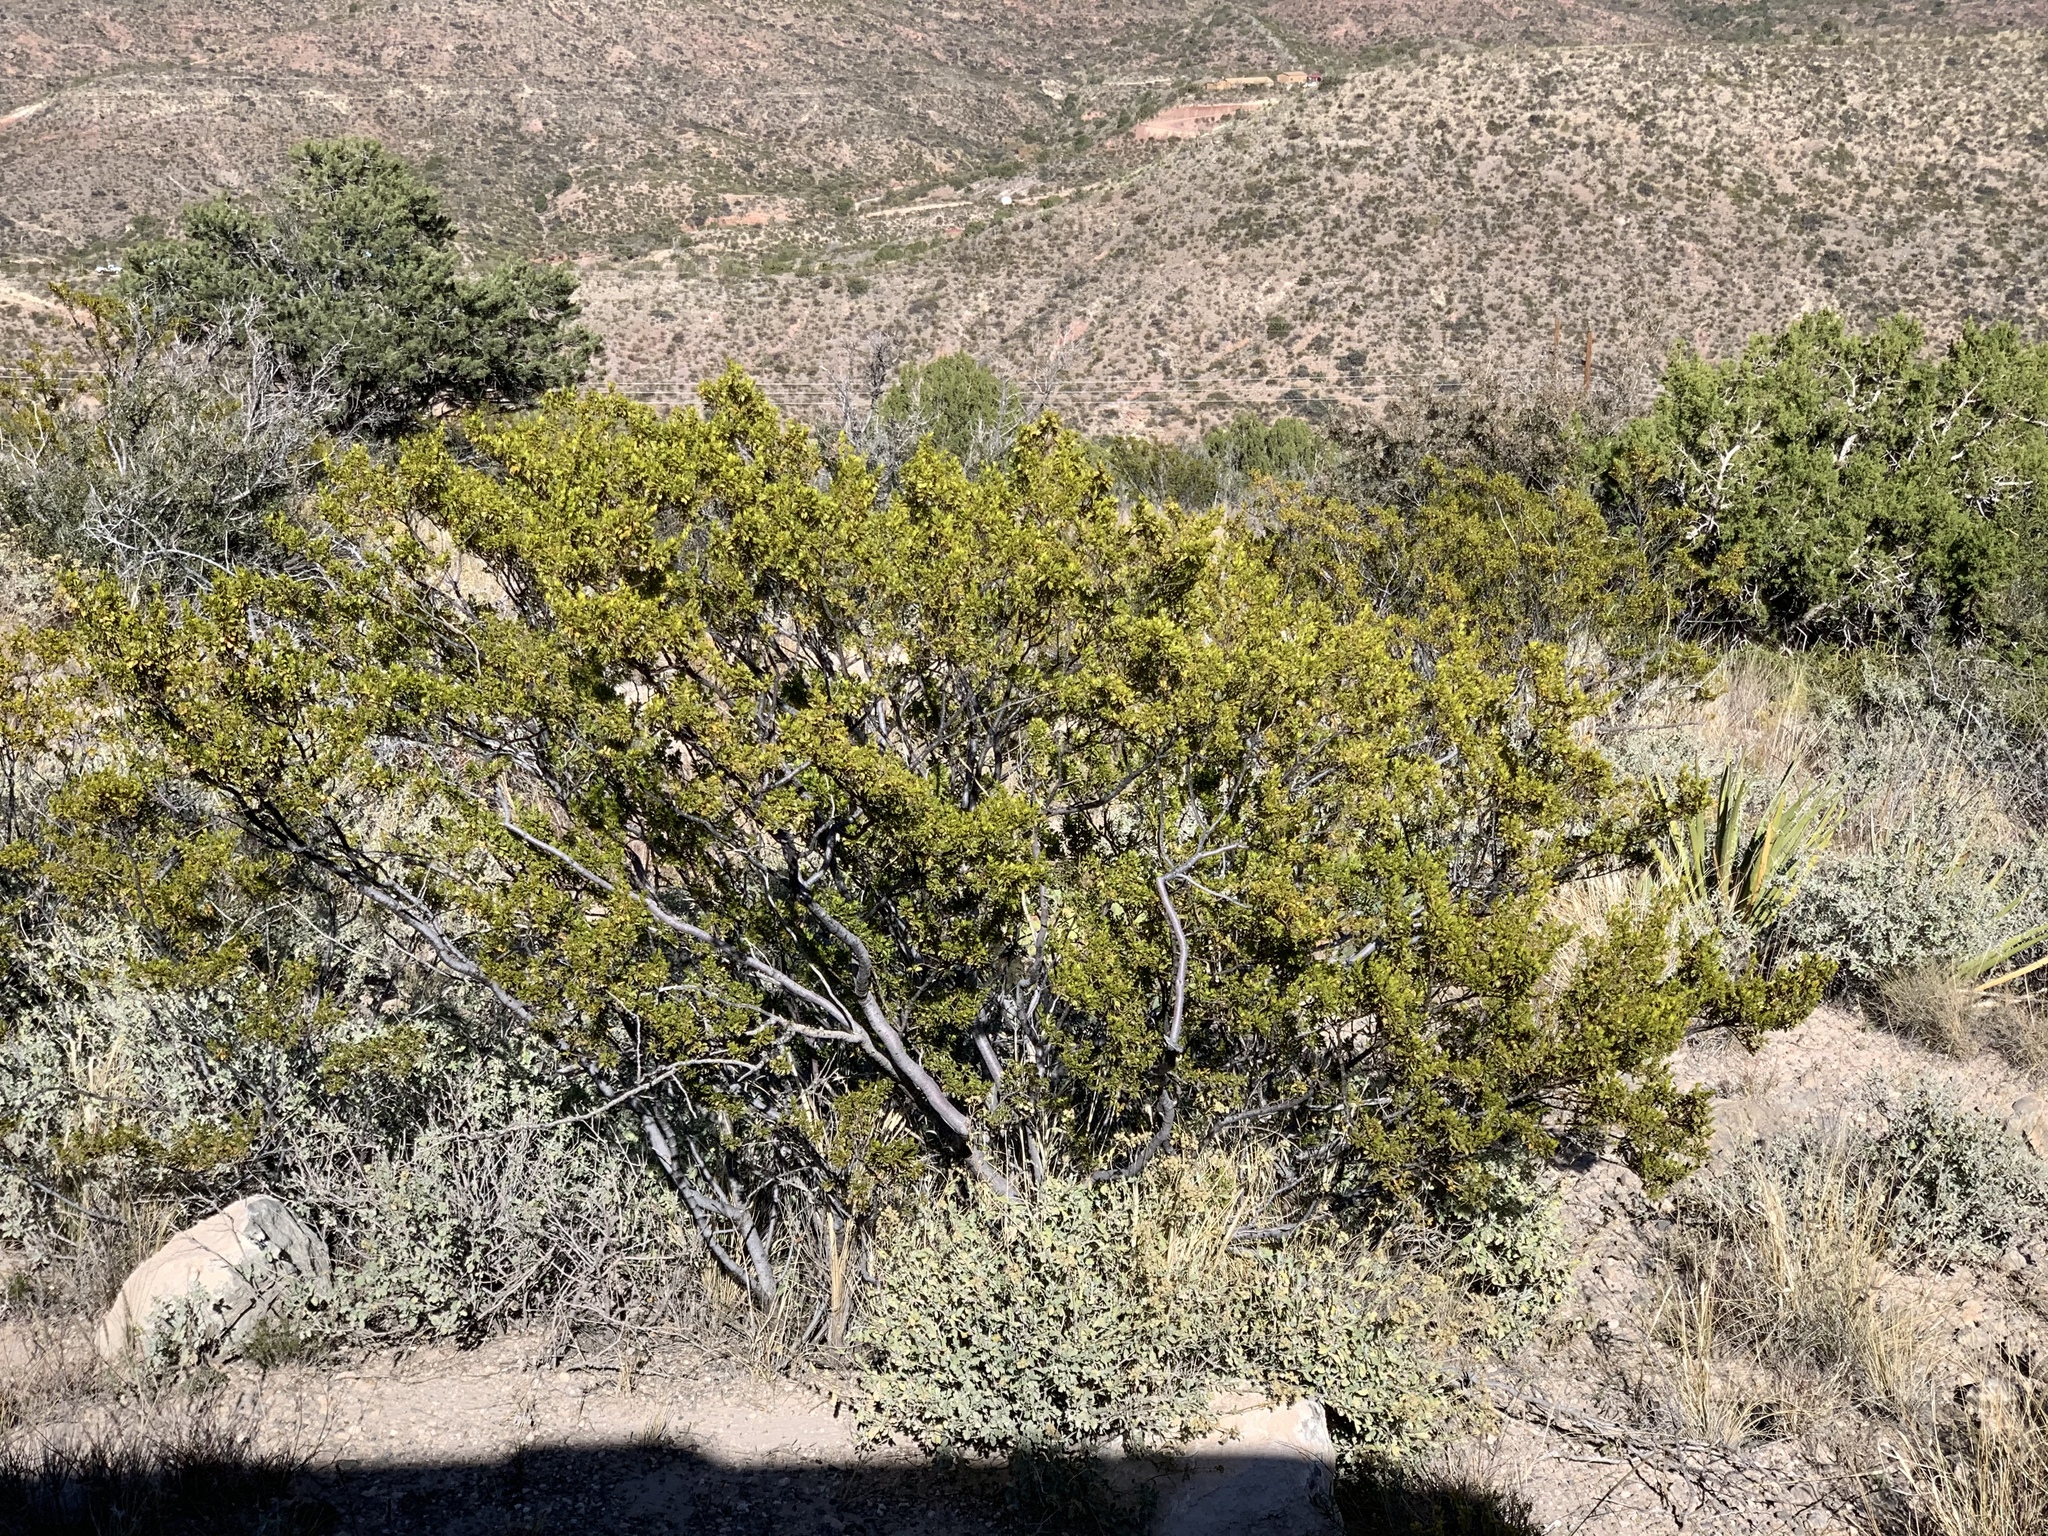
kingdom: Plantae
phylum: Tracheophyta
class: Magnoliopsida
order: Zygophyllales
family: Zygophyllaceae
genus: Larrea
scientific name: Larrea tridentata
